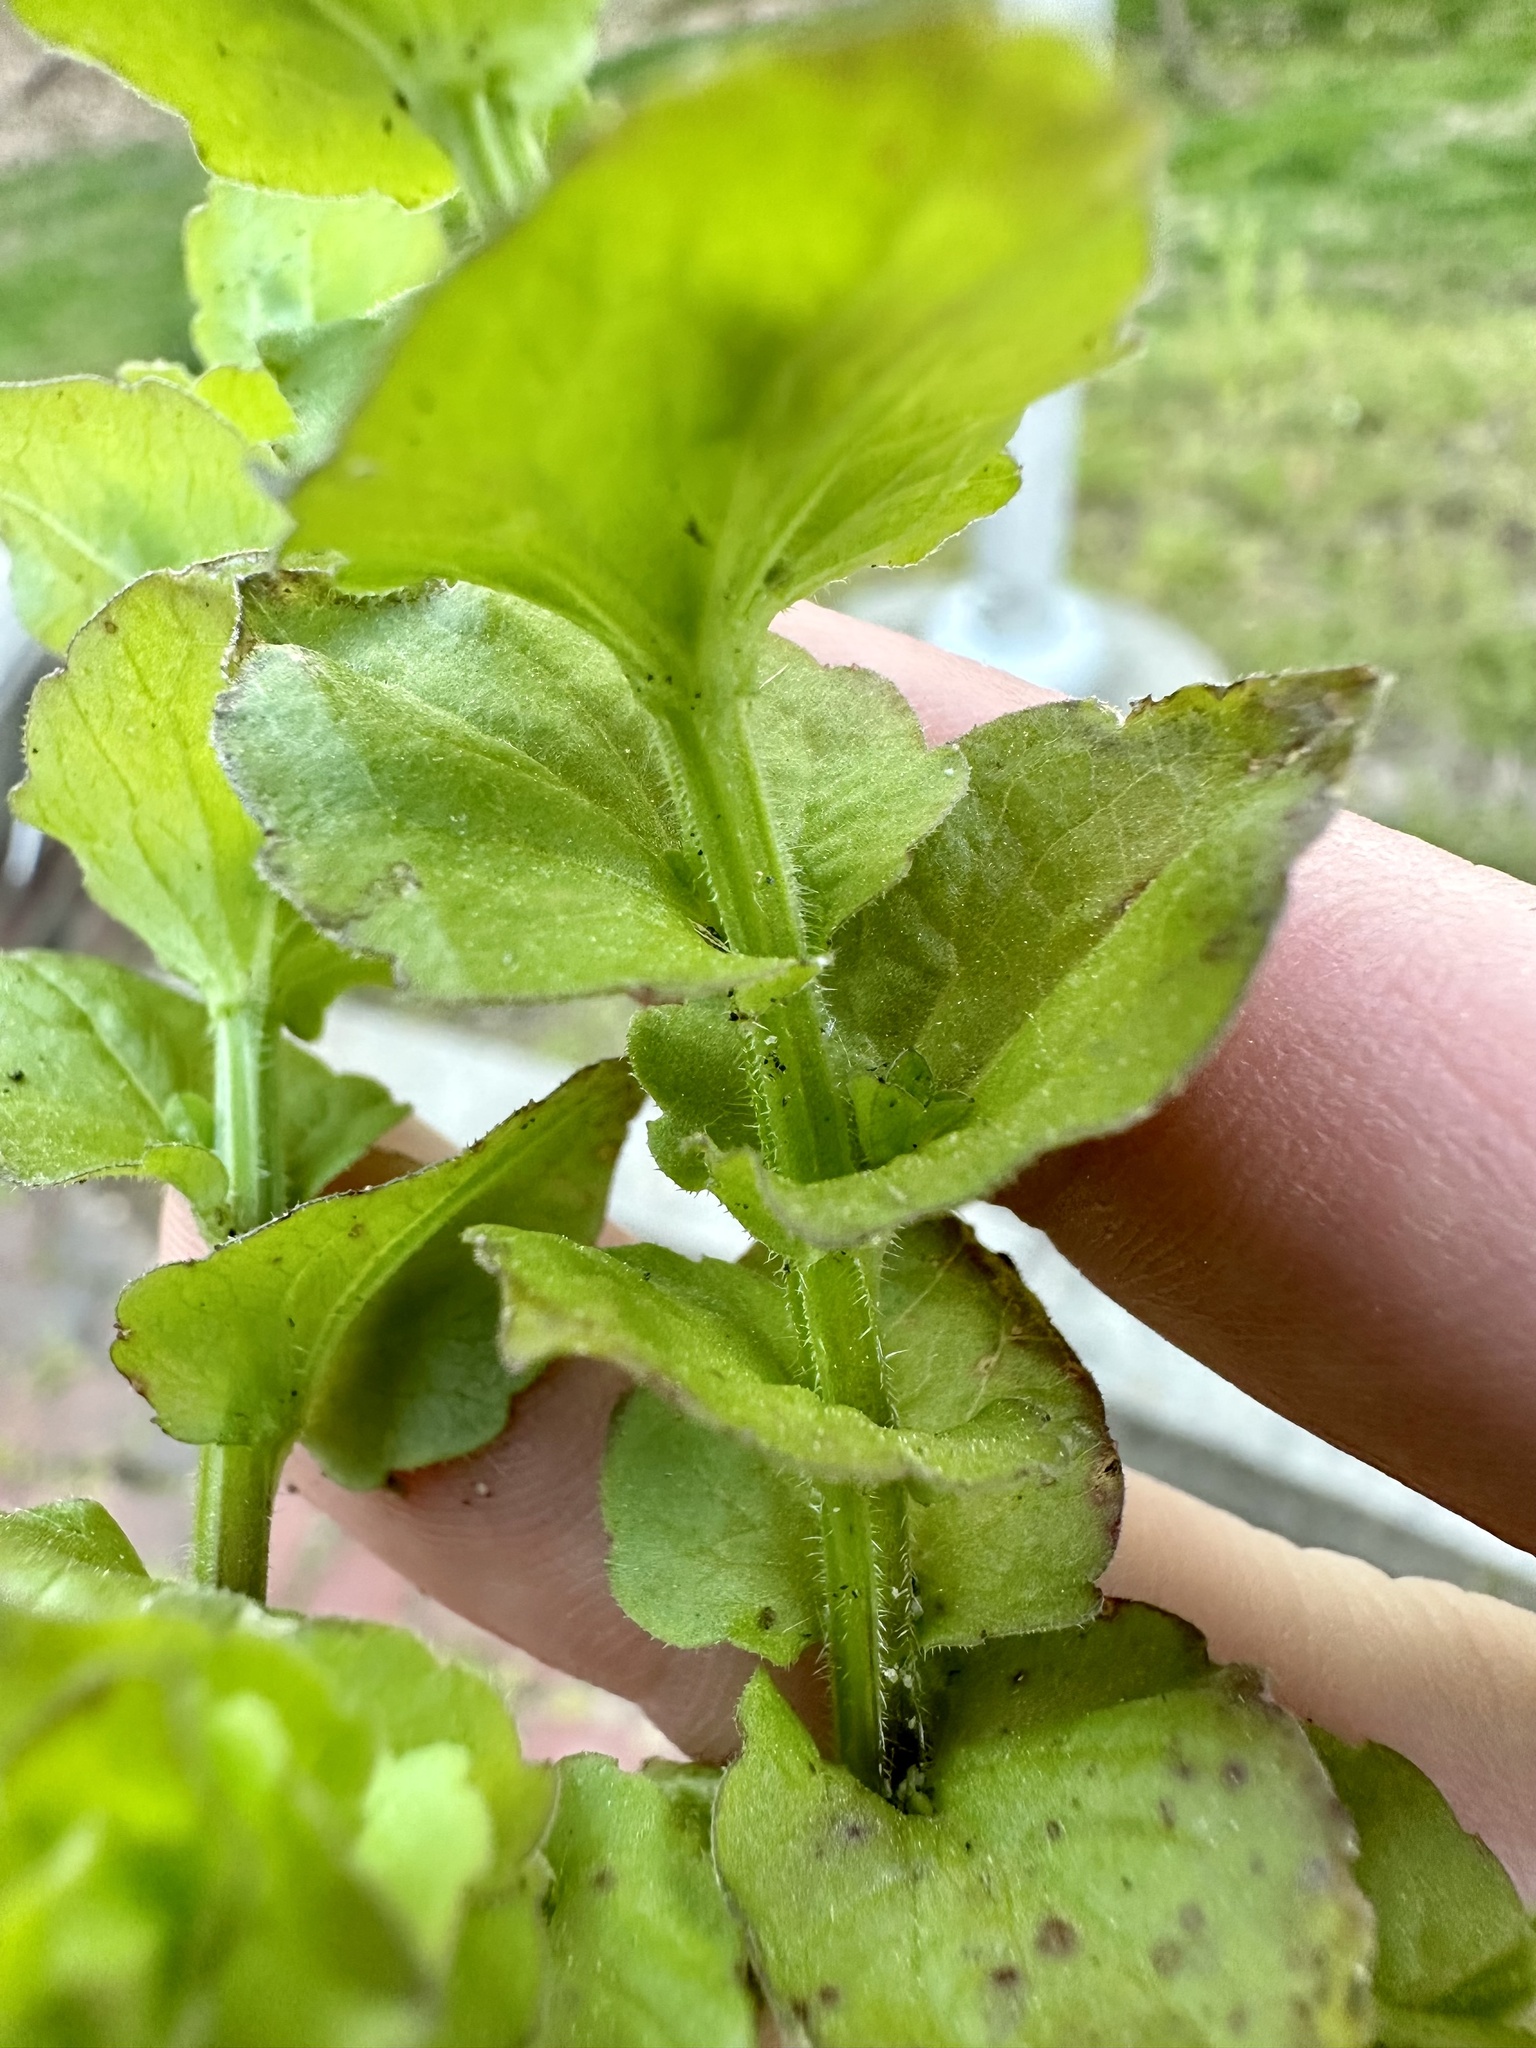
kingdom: Plantae
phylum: Tracheophyta
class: Magnoliopsida
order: Asterales
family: Campanulaceae
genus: Triodanis
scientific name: Triodanis perfoliata
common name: Clasping venus' looking-glass
